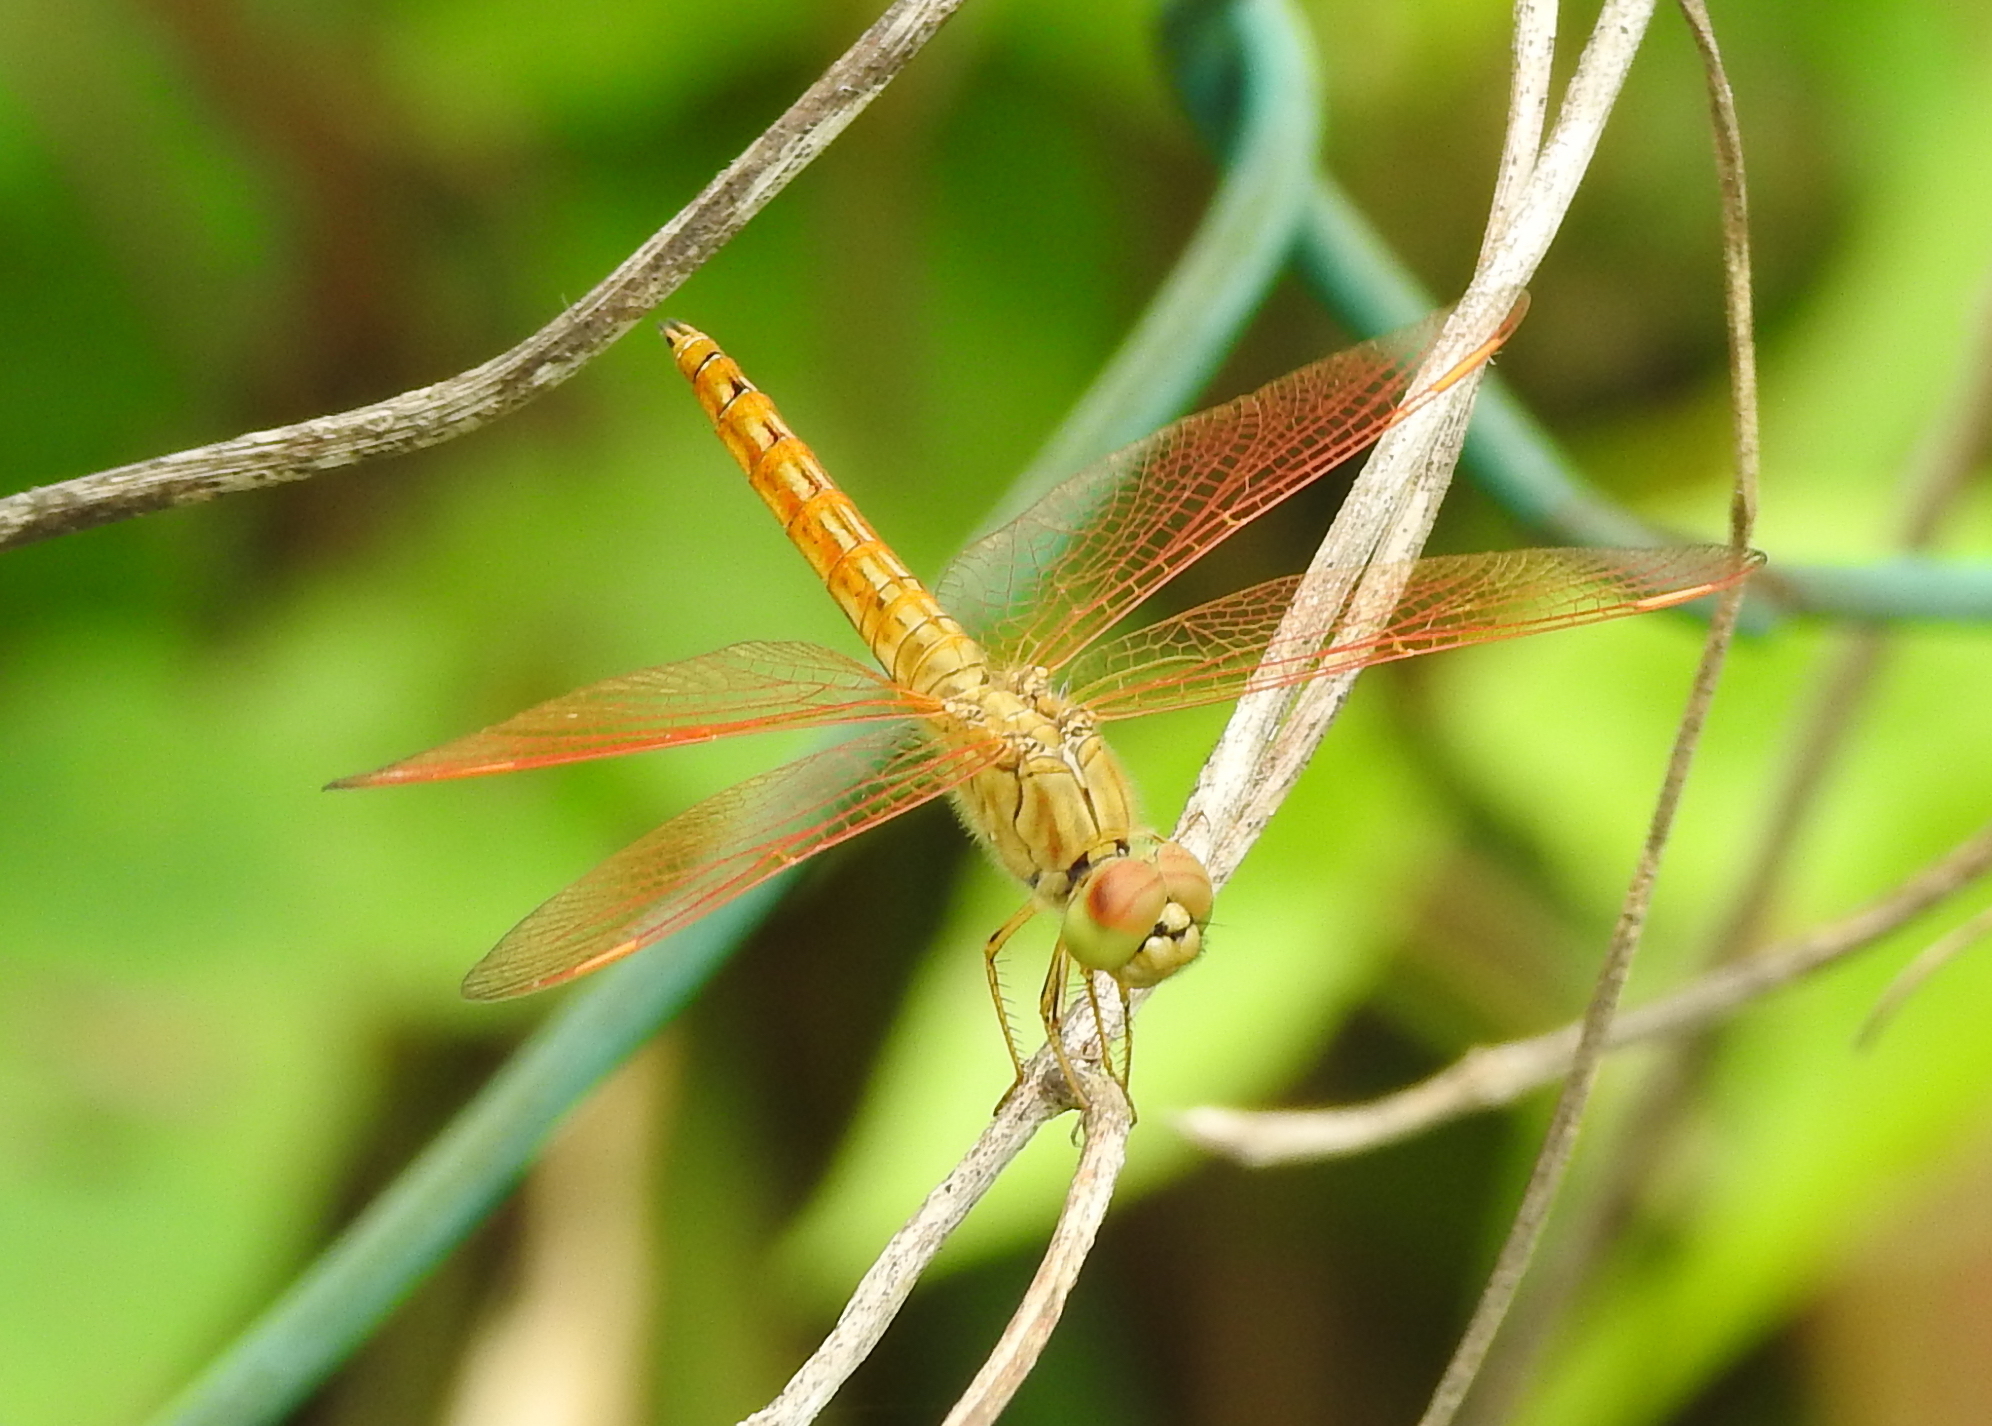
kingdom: Animalia
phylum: Arthropoda
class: Insecta
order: Odonata
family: Libellulidae
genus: Brachythemis
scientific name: Brachythemis contaminata
